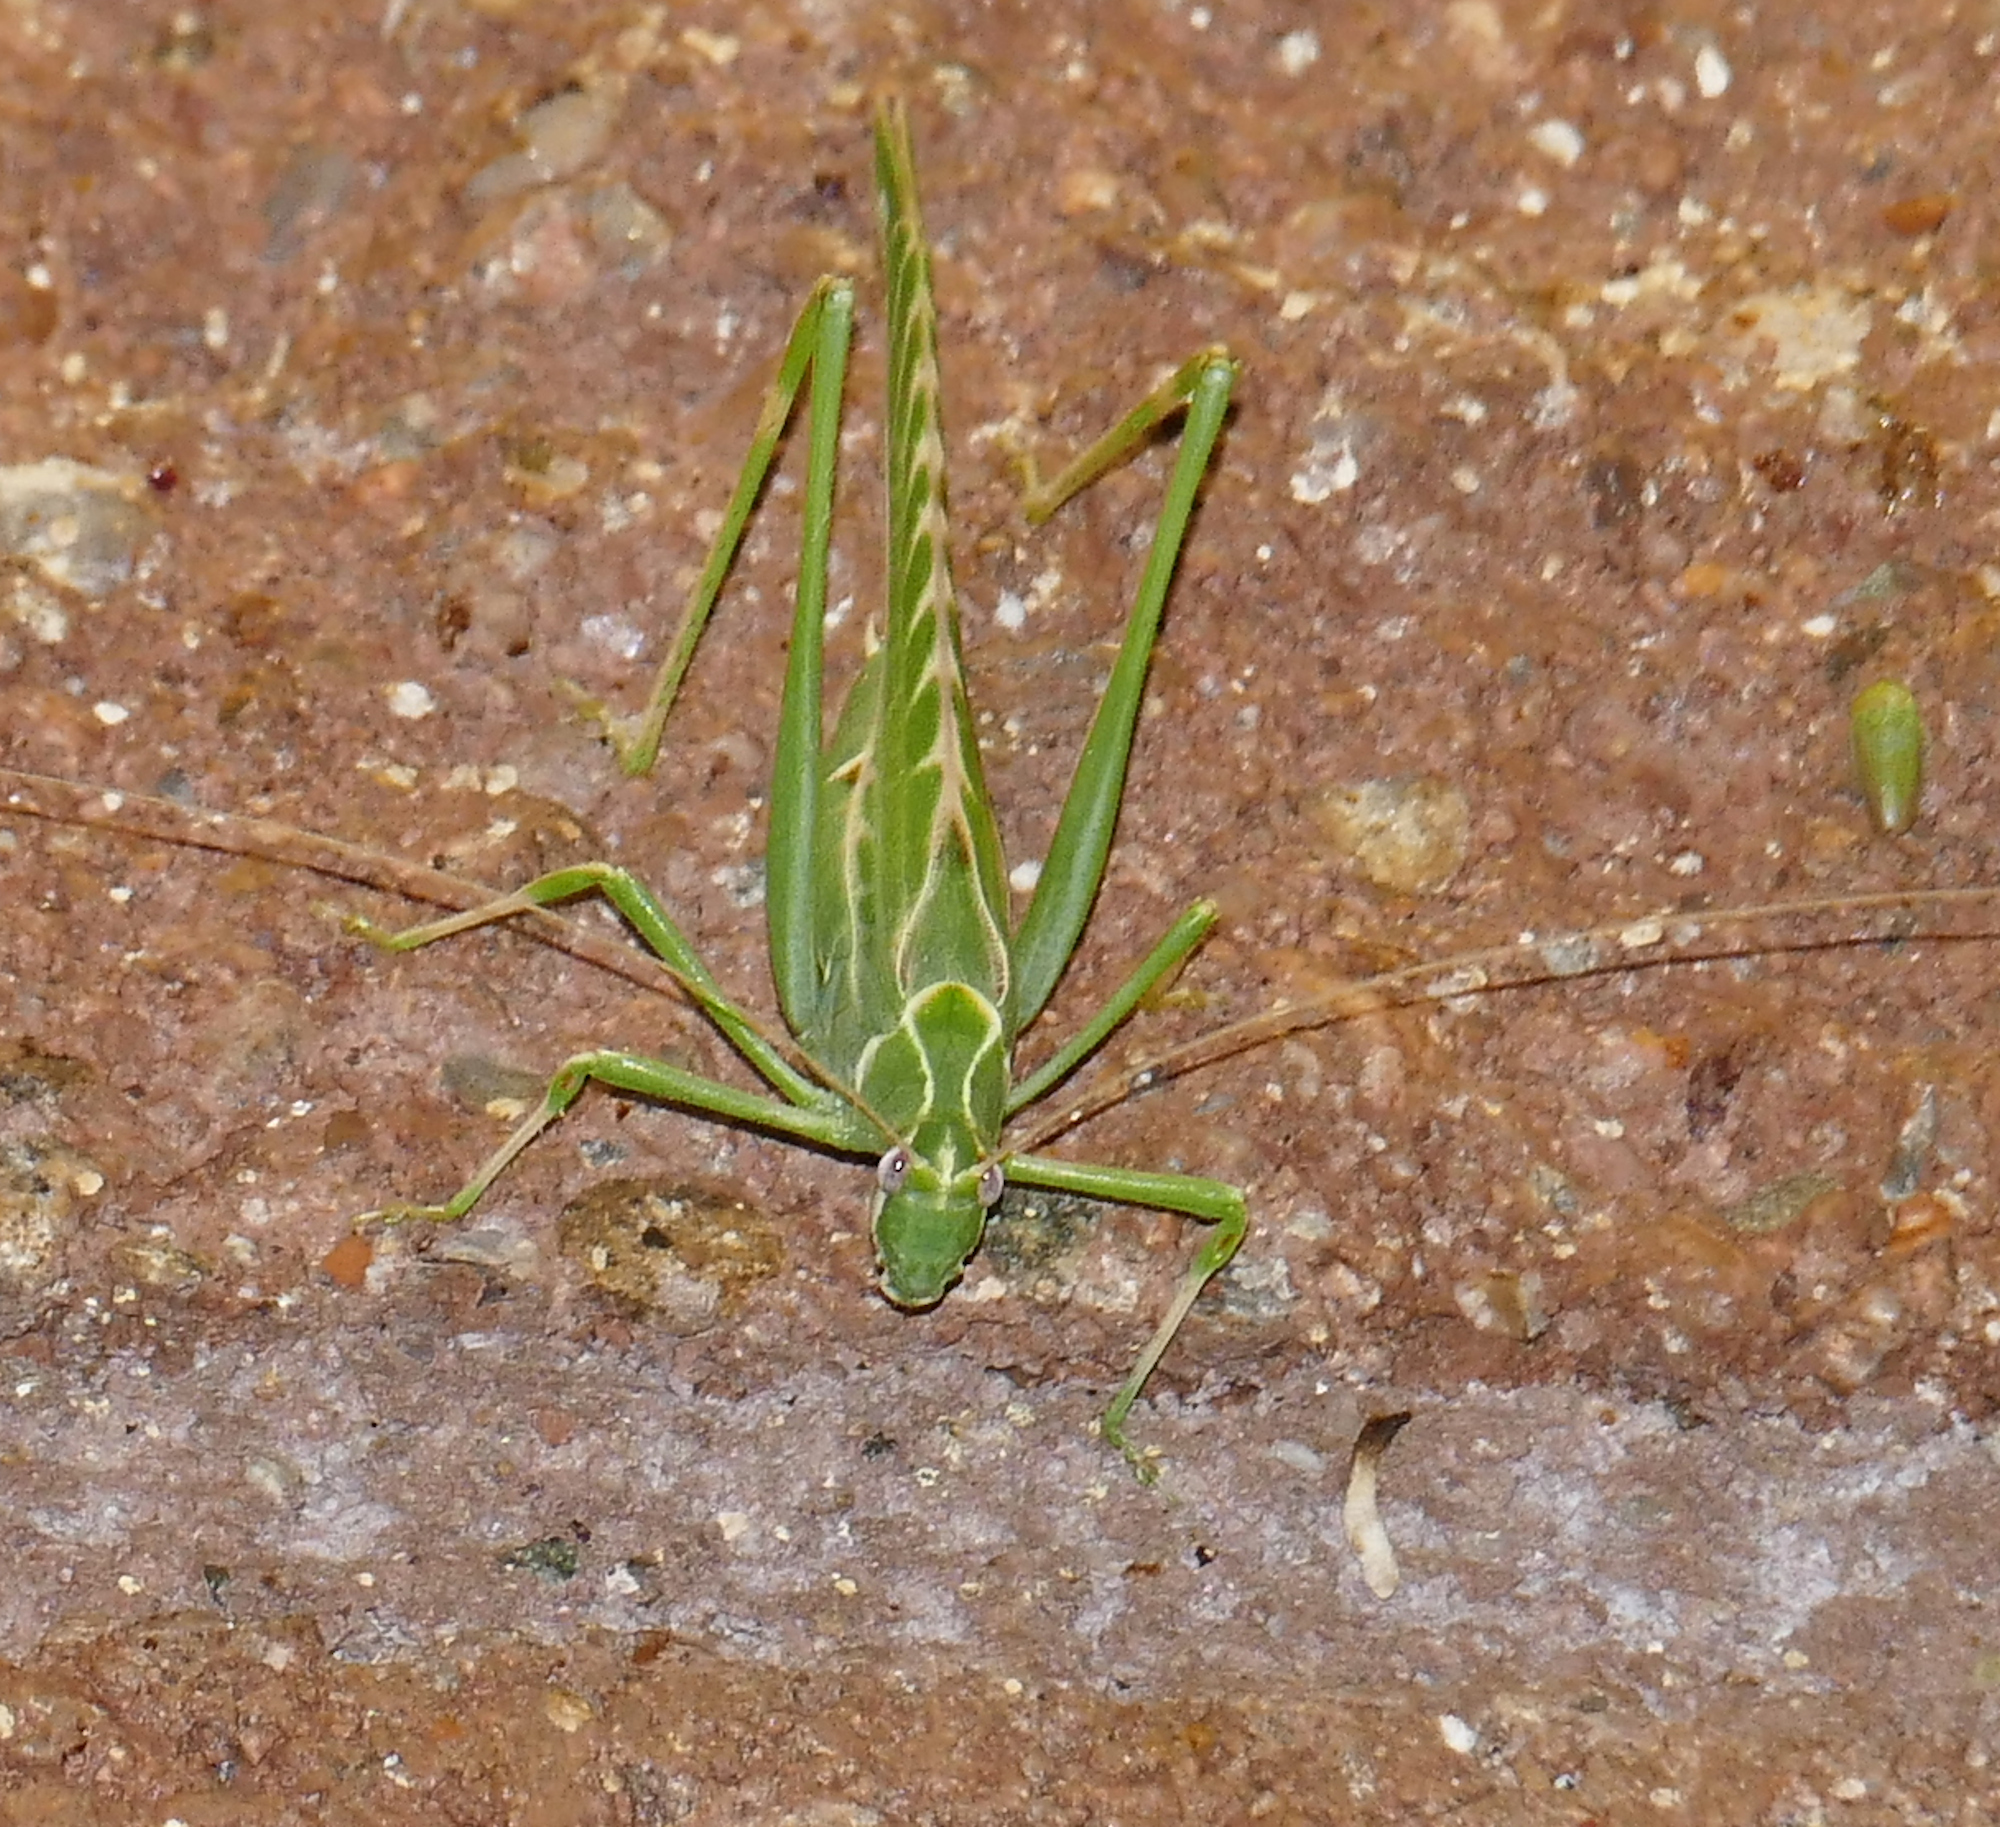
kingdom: Animalia
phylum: Arthropoda
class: Insecta
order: Orthoptera
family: Tettigoniidae
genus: Insara
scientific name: Insara elegans
